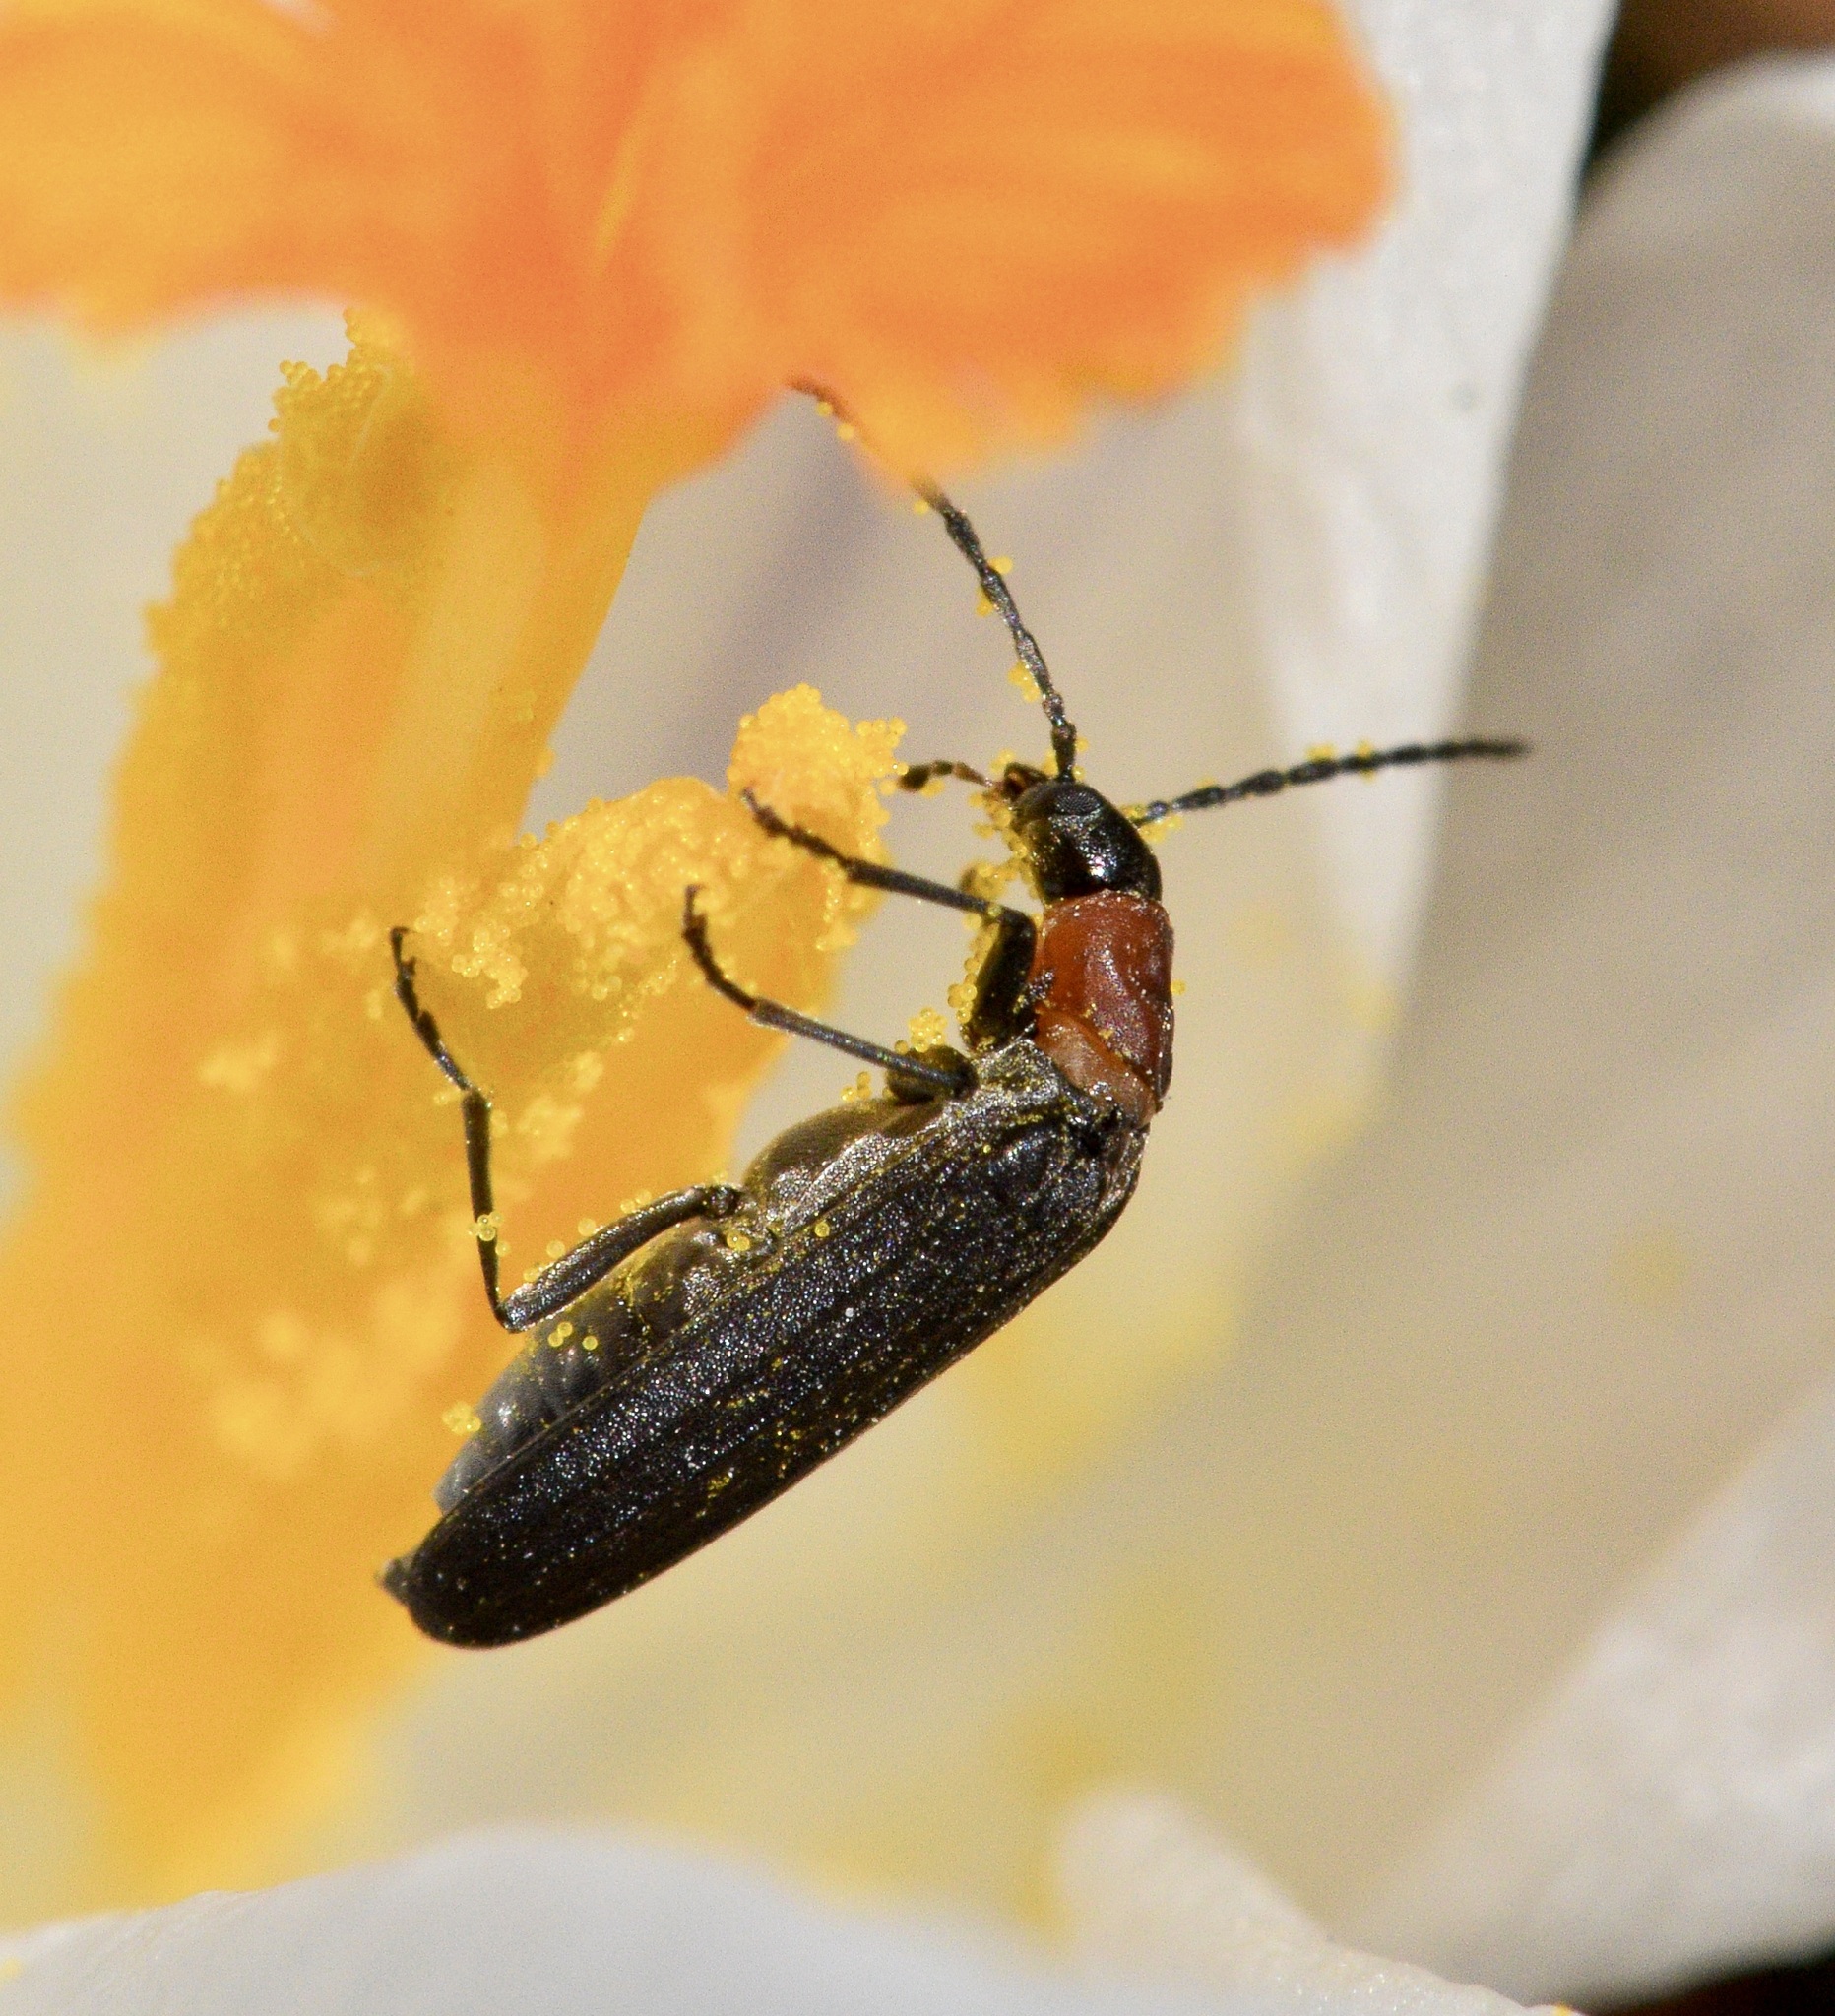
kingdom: Animalia
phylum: Arthropoda
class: Insecta
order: Coleoptera
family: Oedemeridae
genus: Ischnomera
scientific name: Ischnomera
